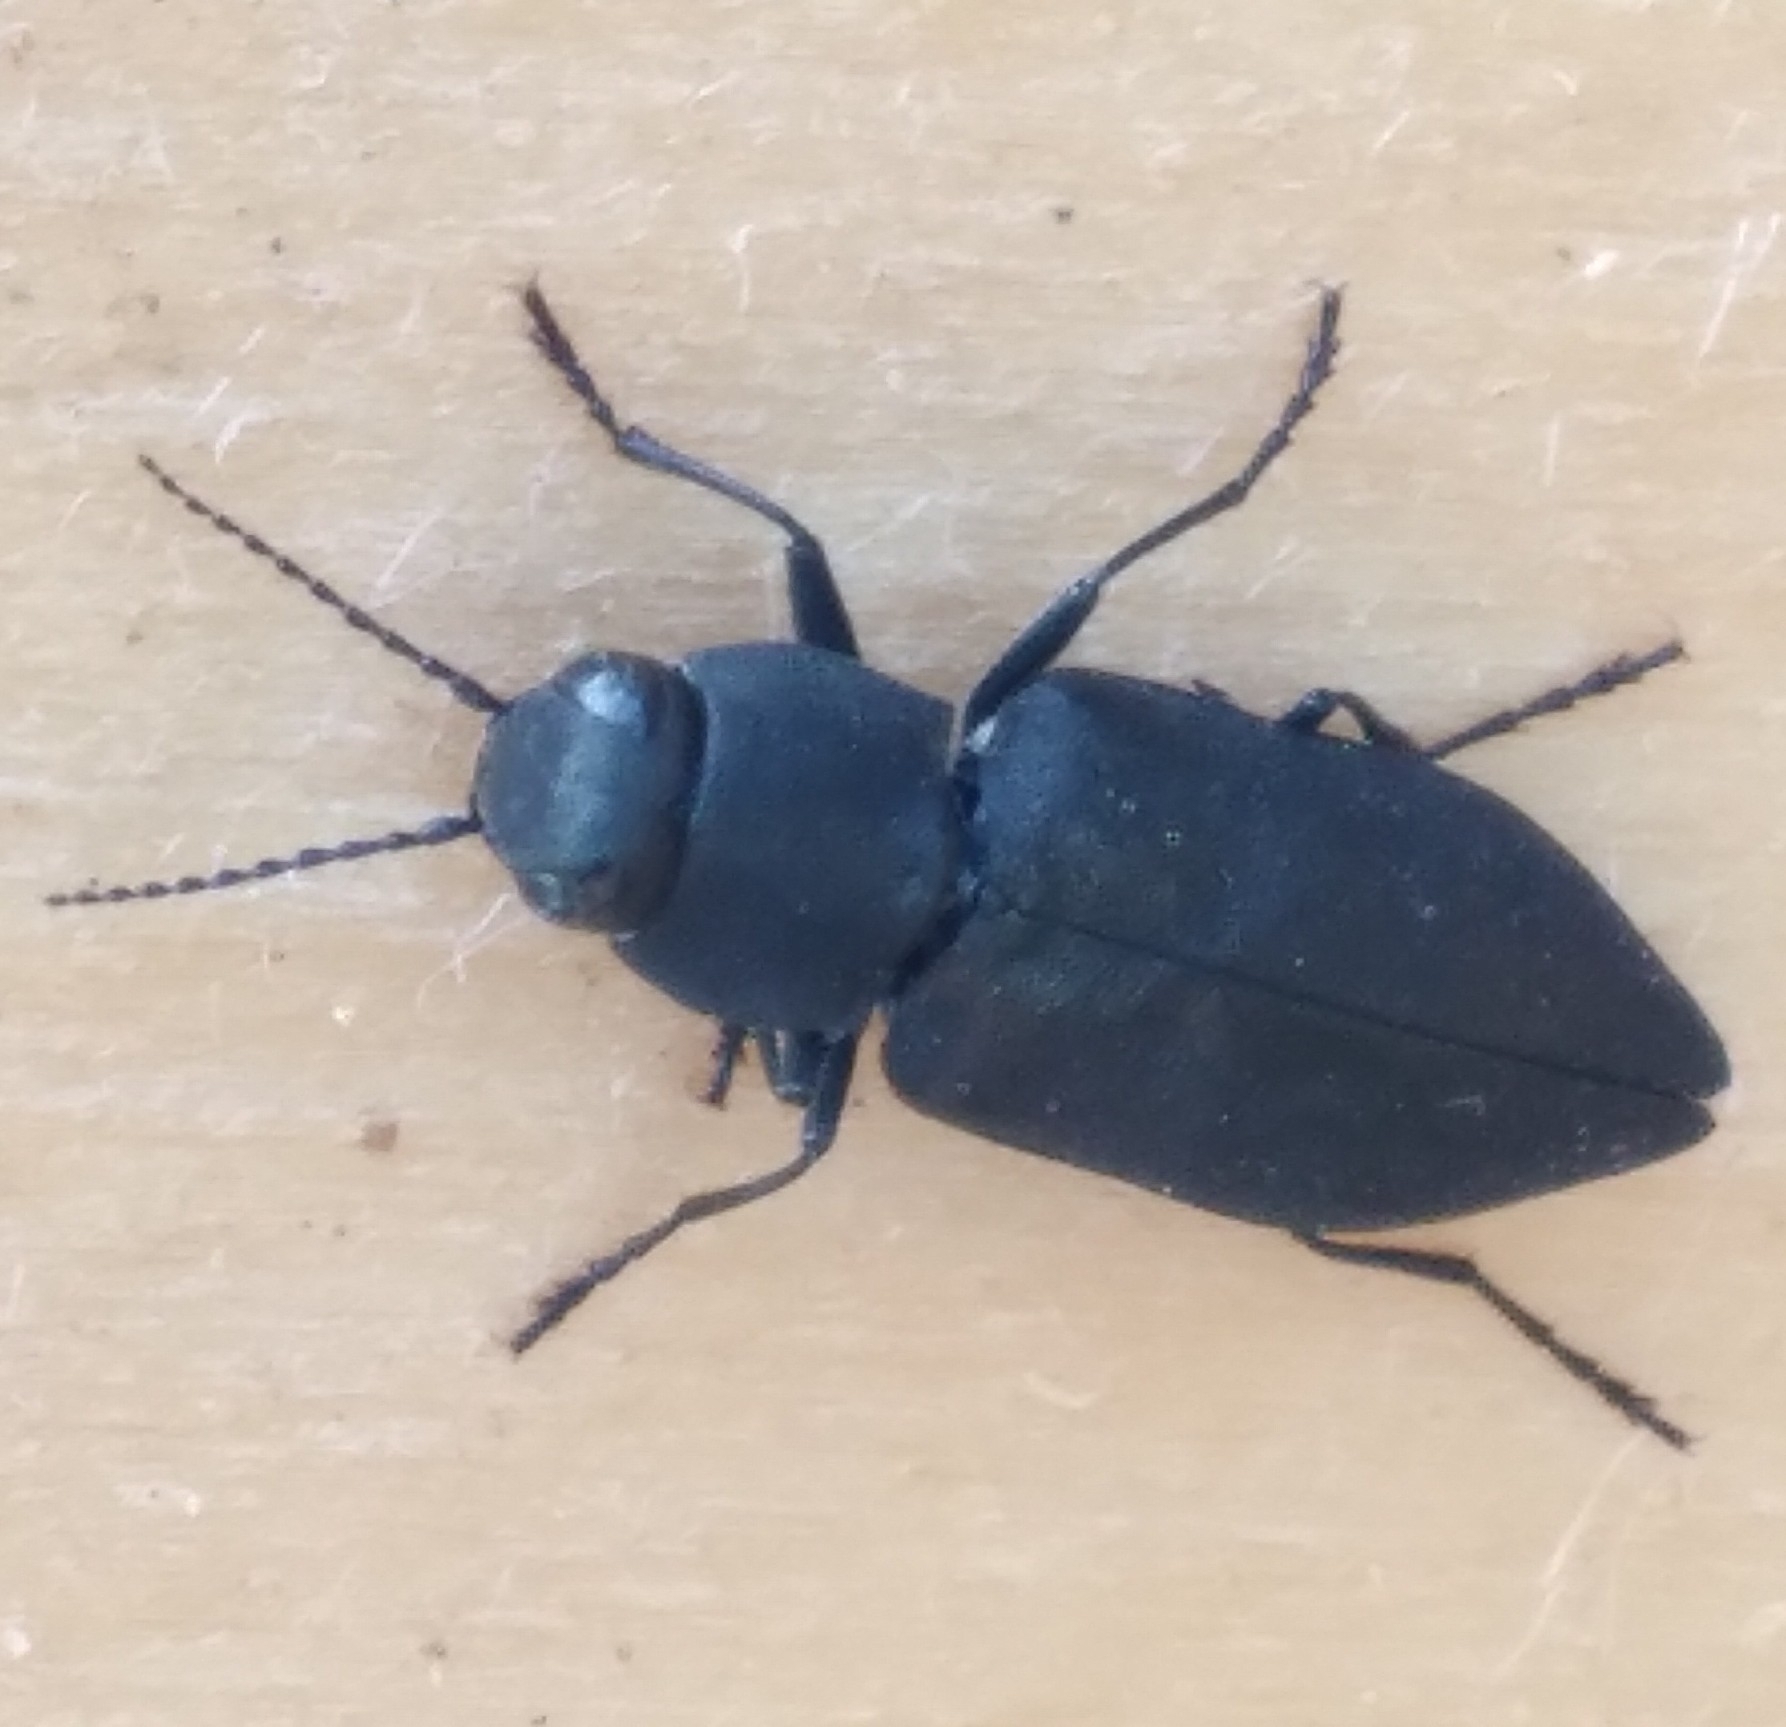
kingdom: Animalia
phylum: Arthropoda
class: Insecta
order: Coleoptera
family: Buprestidae
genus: Melanophila
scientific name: Melanophila acuminata
